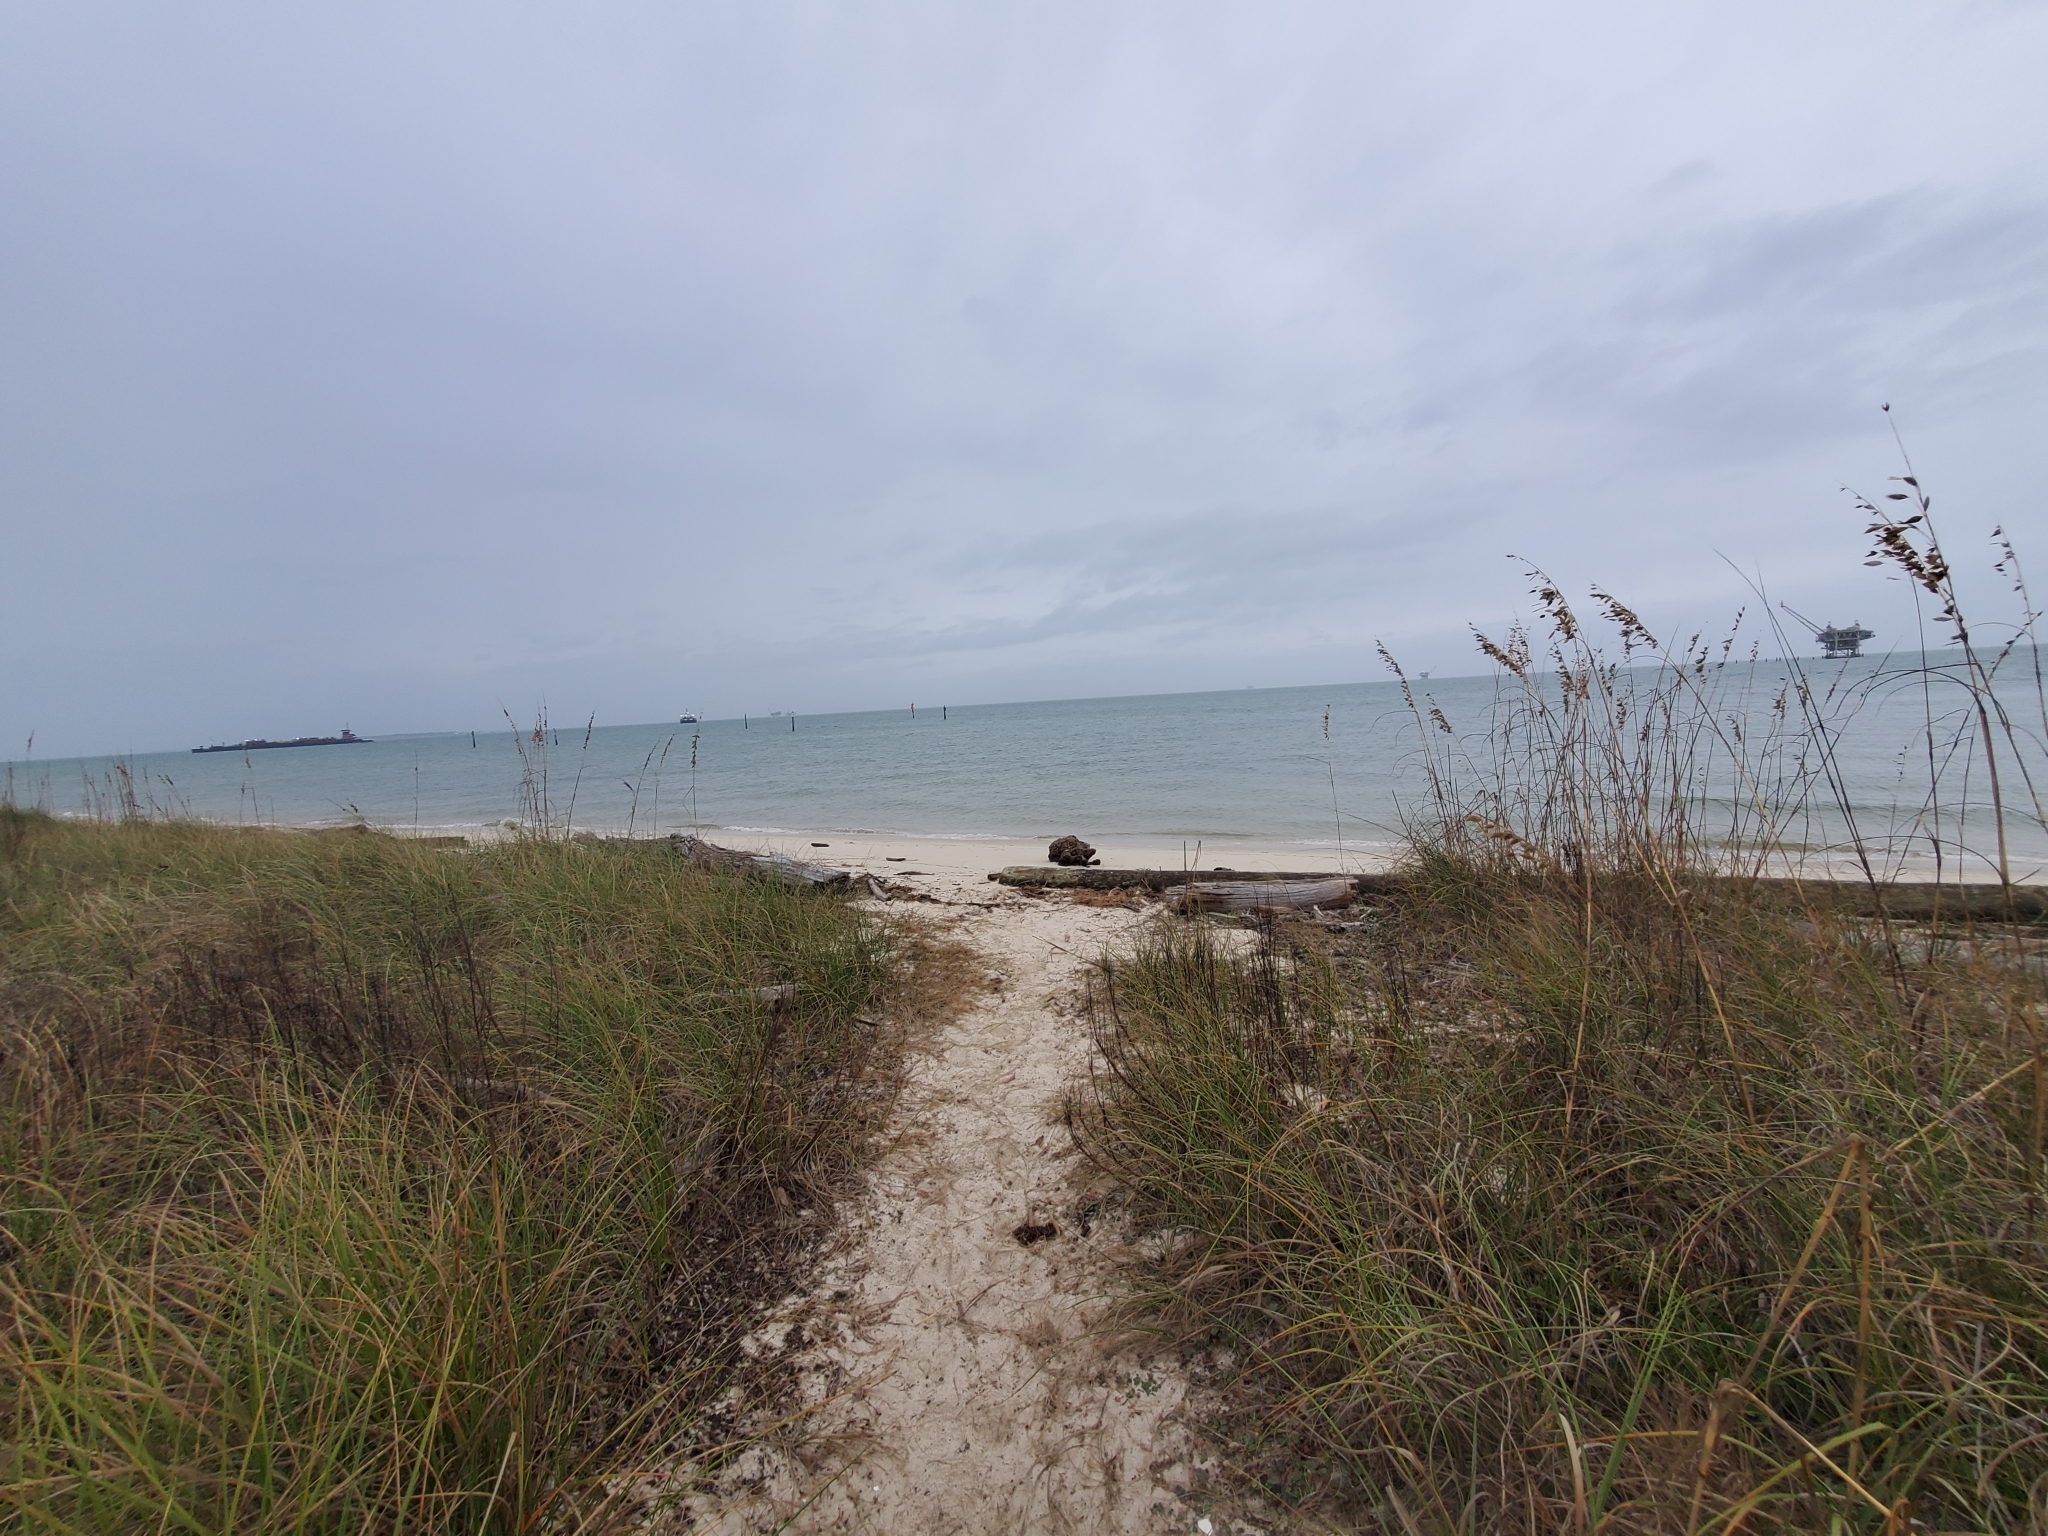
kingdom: Plantae
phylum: Tracheophyta
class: Liliopsida
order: Poales
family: Poaceae
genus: Uniola
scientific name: Uniola paniculata
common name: Seaside-oats
